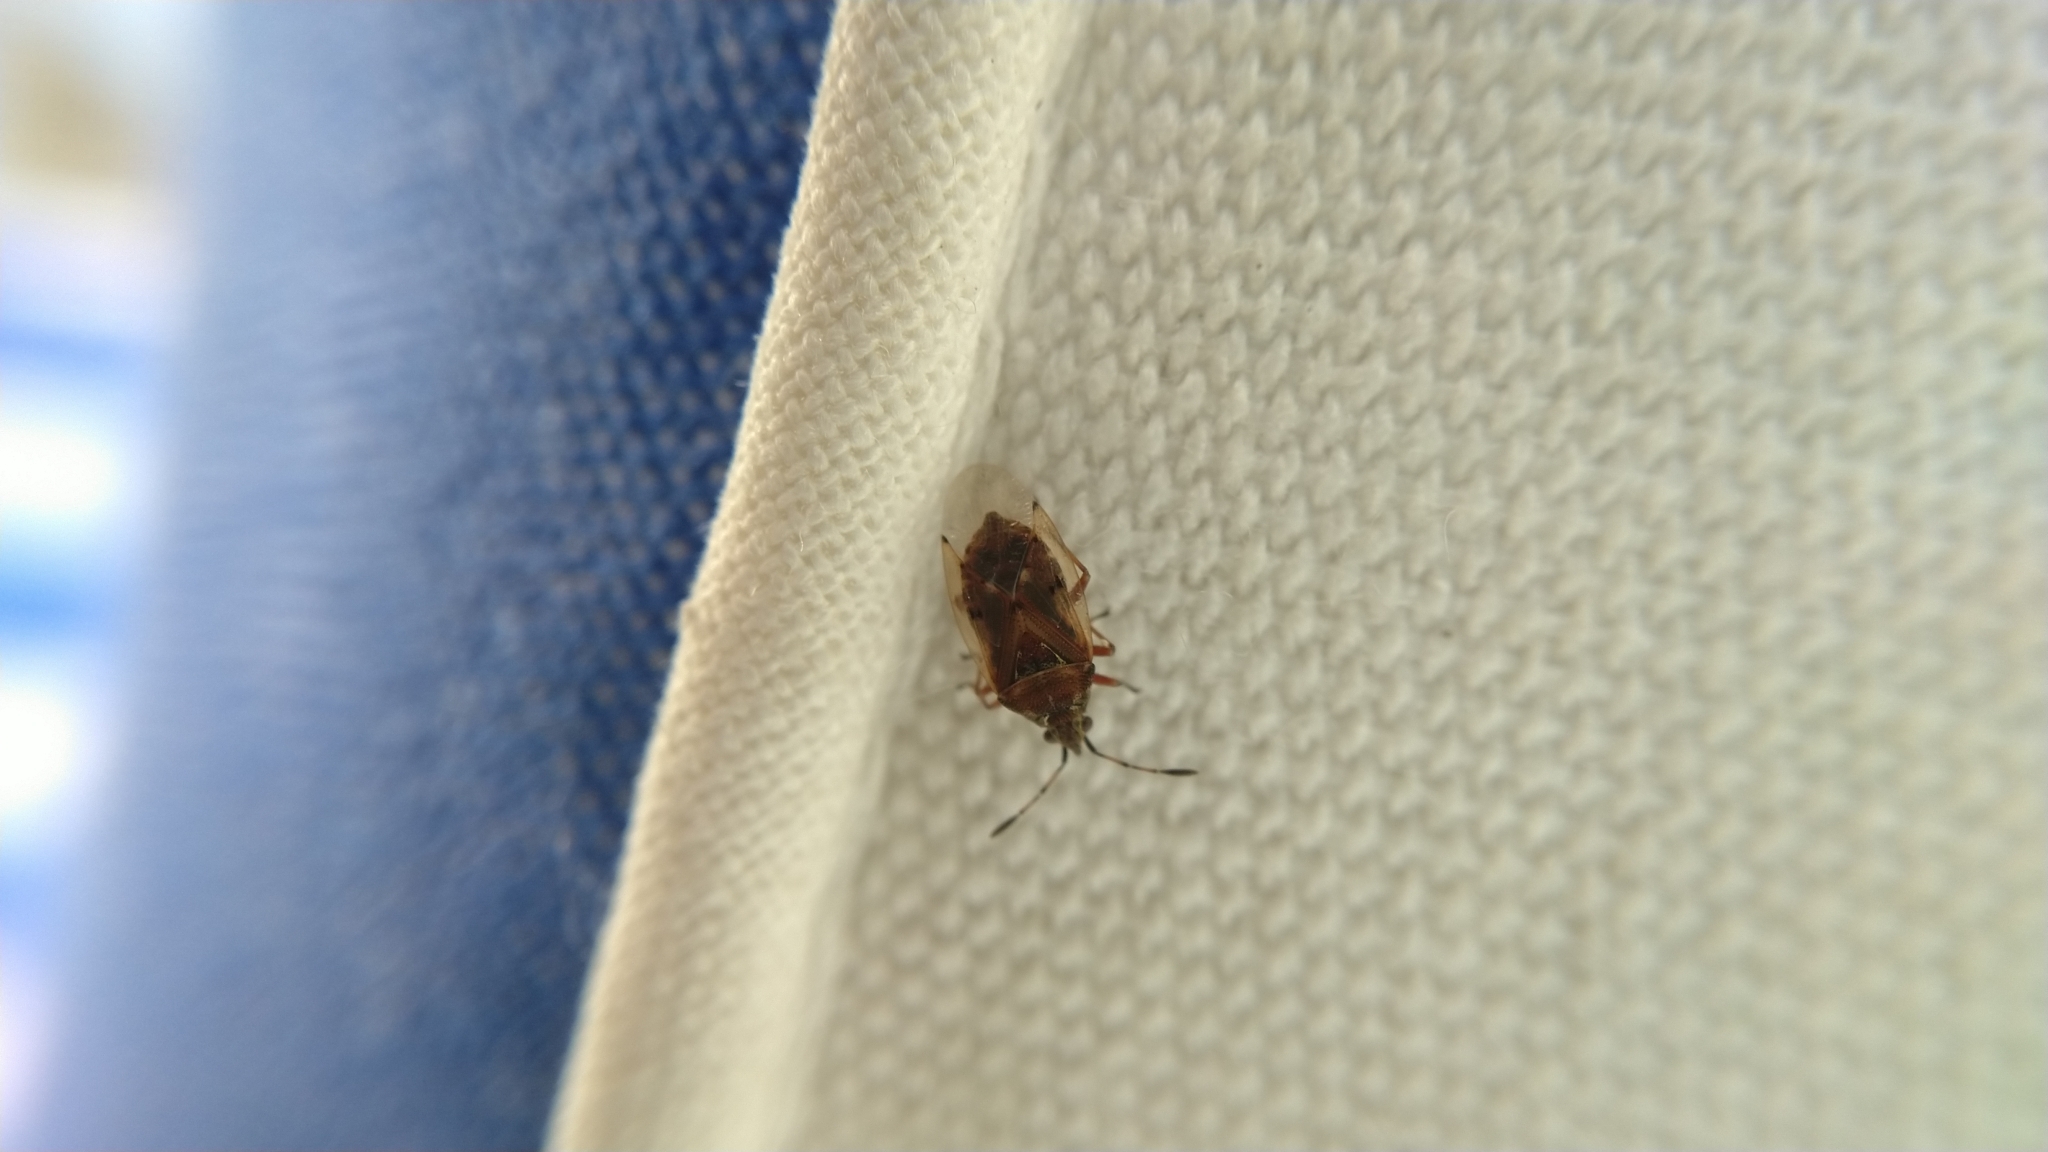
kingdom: Animalia
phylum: Arthropoda
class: Insecta
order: Hemiptera
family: Lygaeidae
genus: Kleidocerys
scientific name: Kleidocerys resedae
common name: Birch catkin bug
